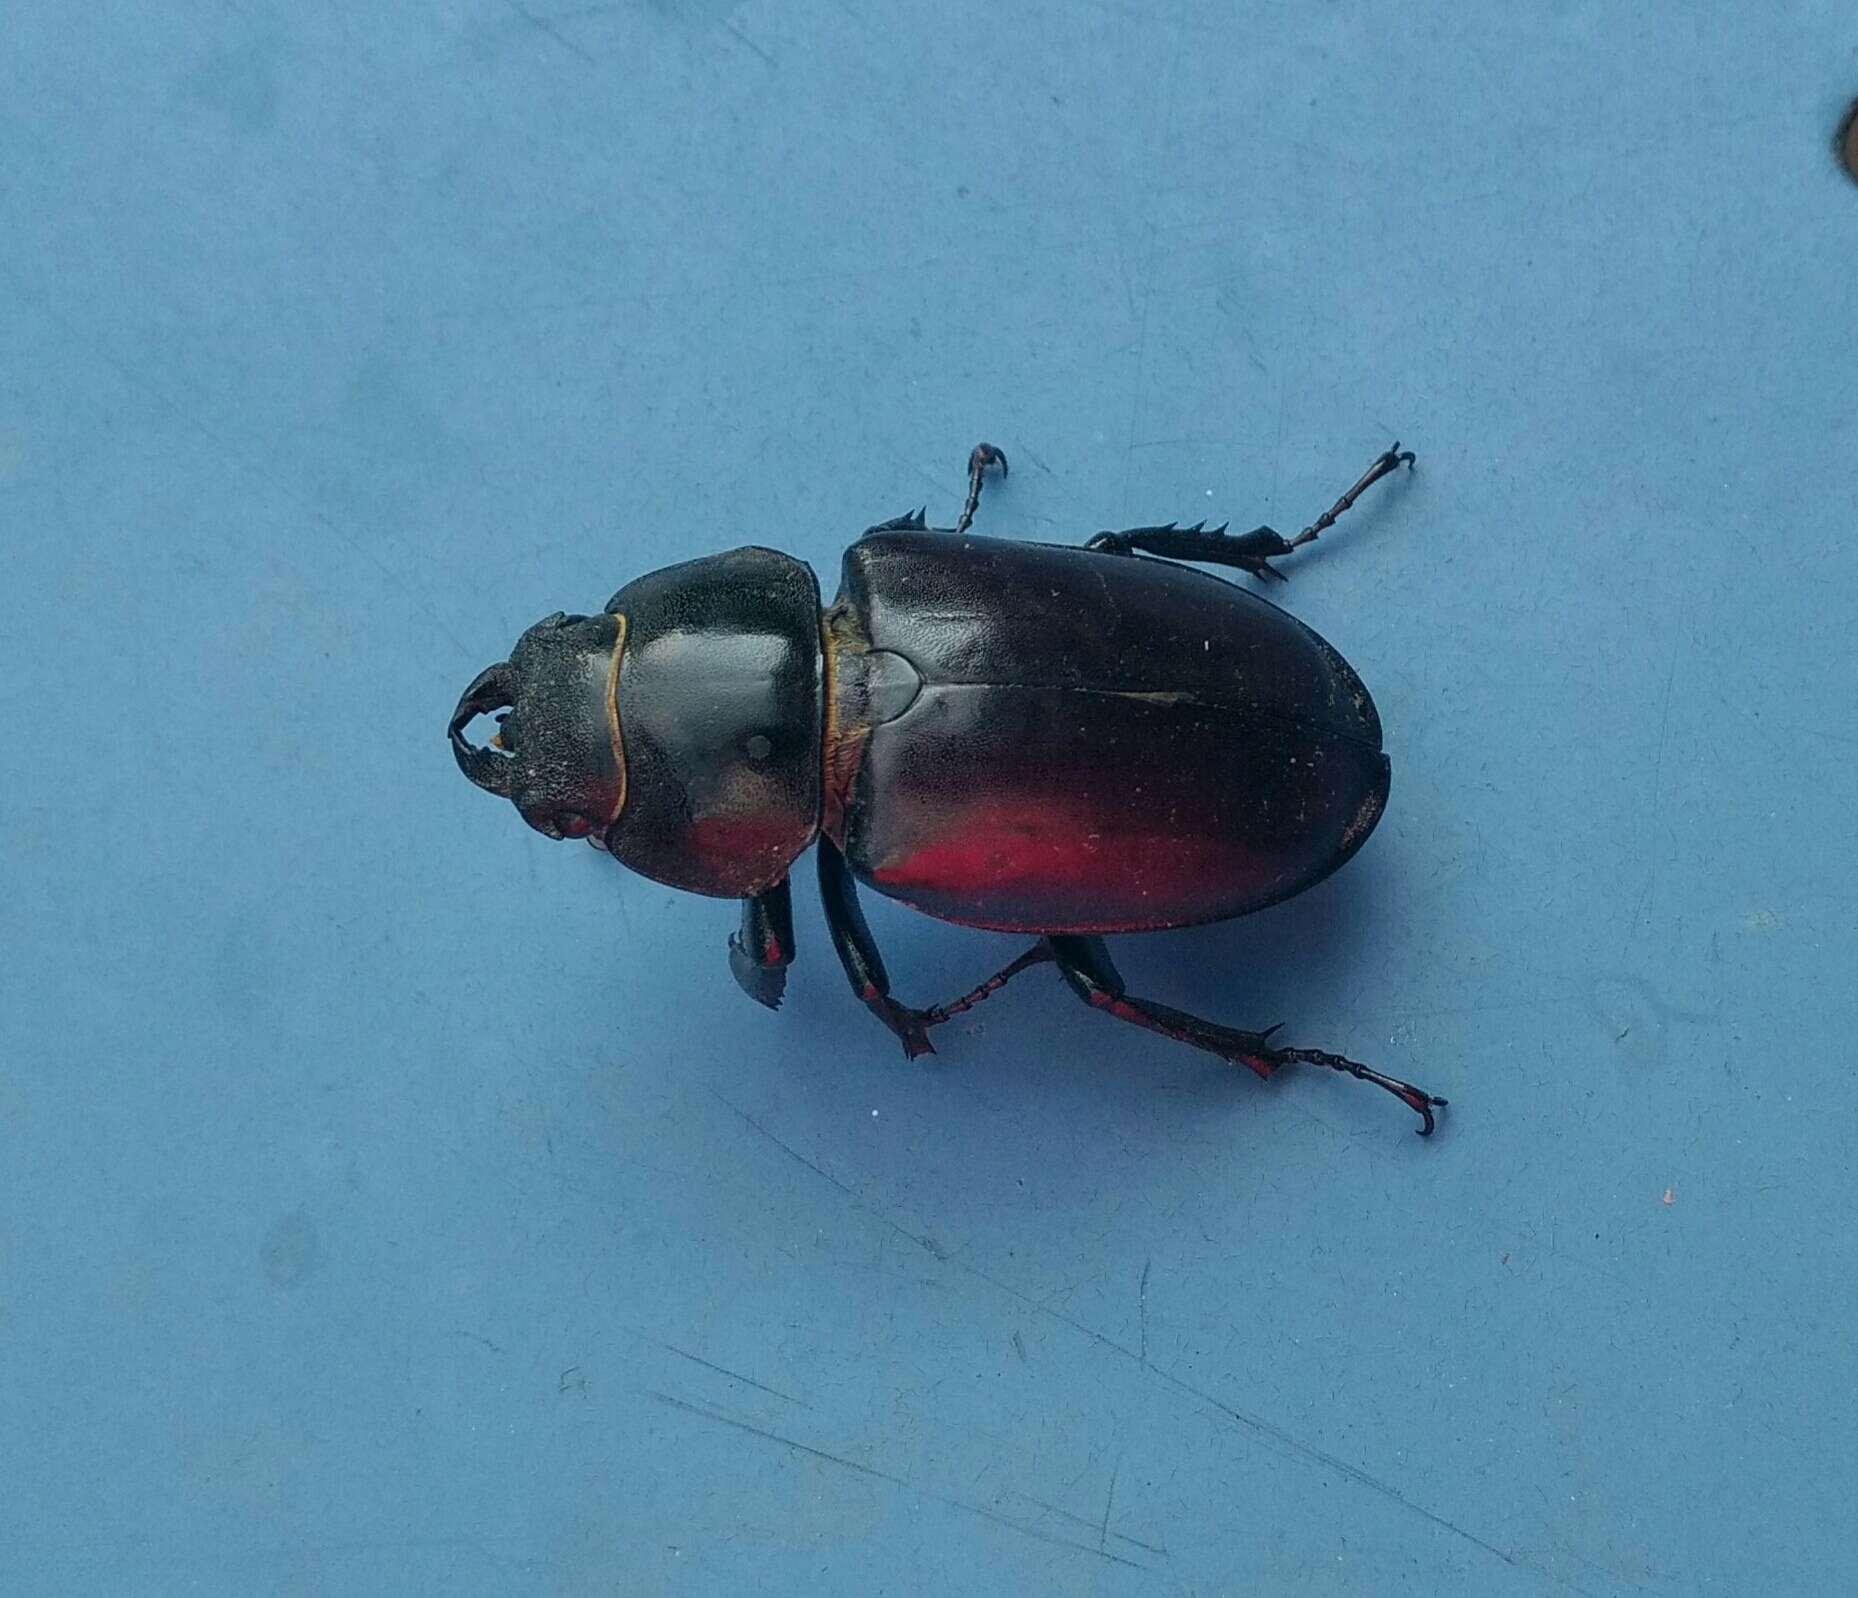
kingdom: Animalia
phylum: Arthropoda
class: Insecta
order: Coleoptera
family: Lucanidae
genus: Lucanus
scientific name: Lucanus cervus
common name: Stag beetle
